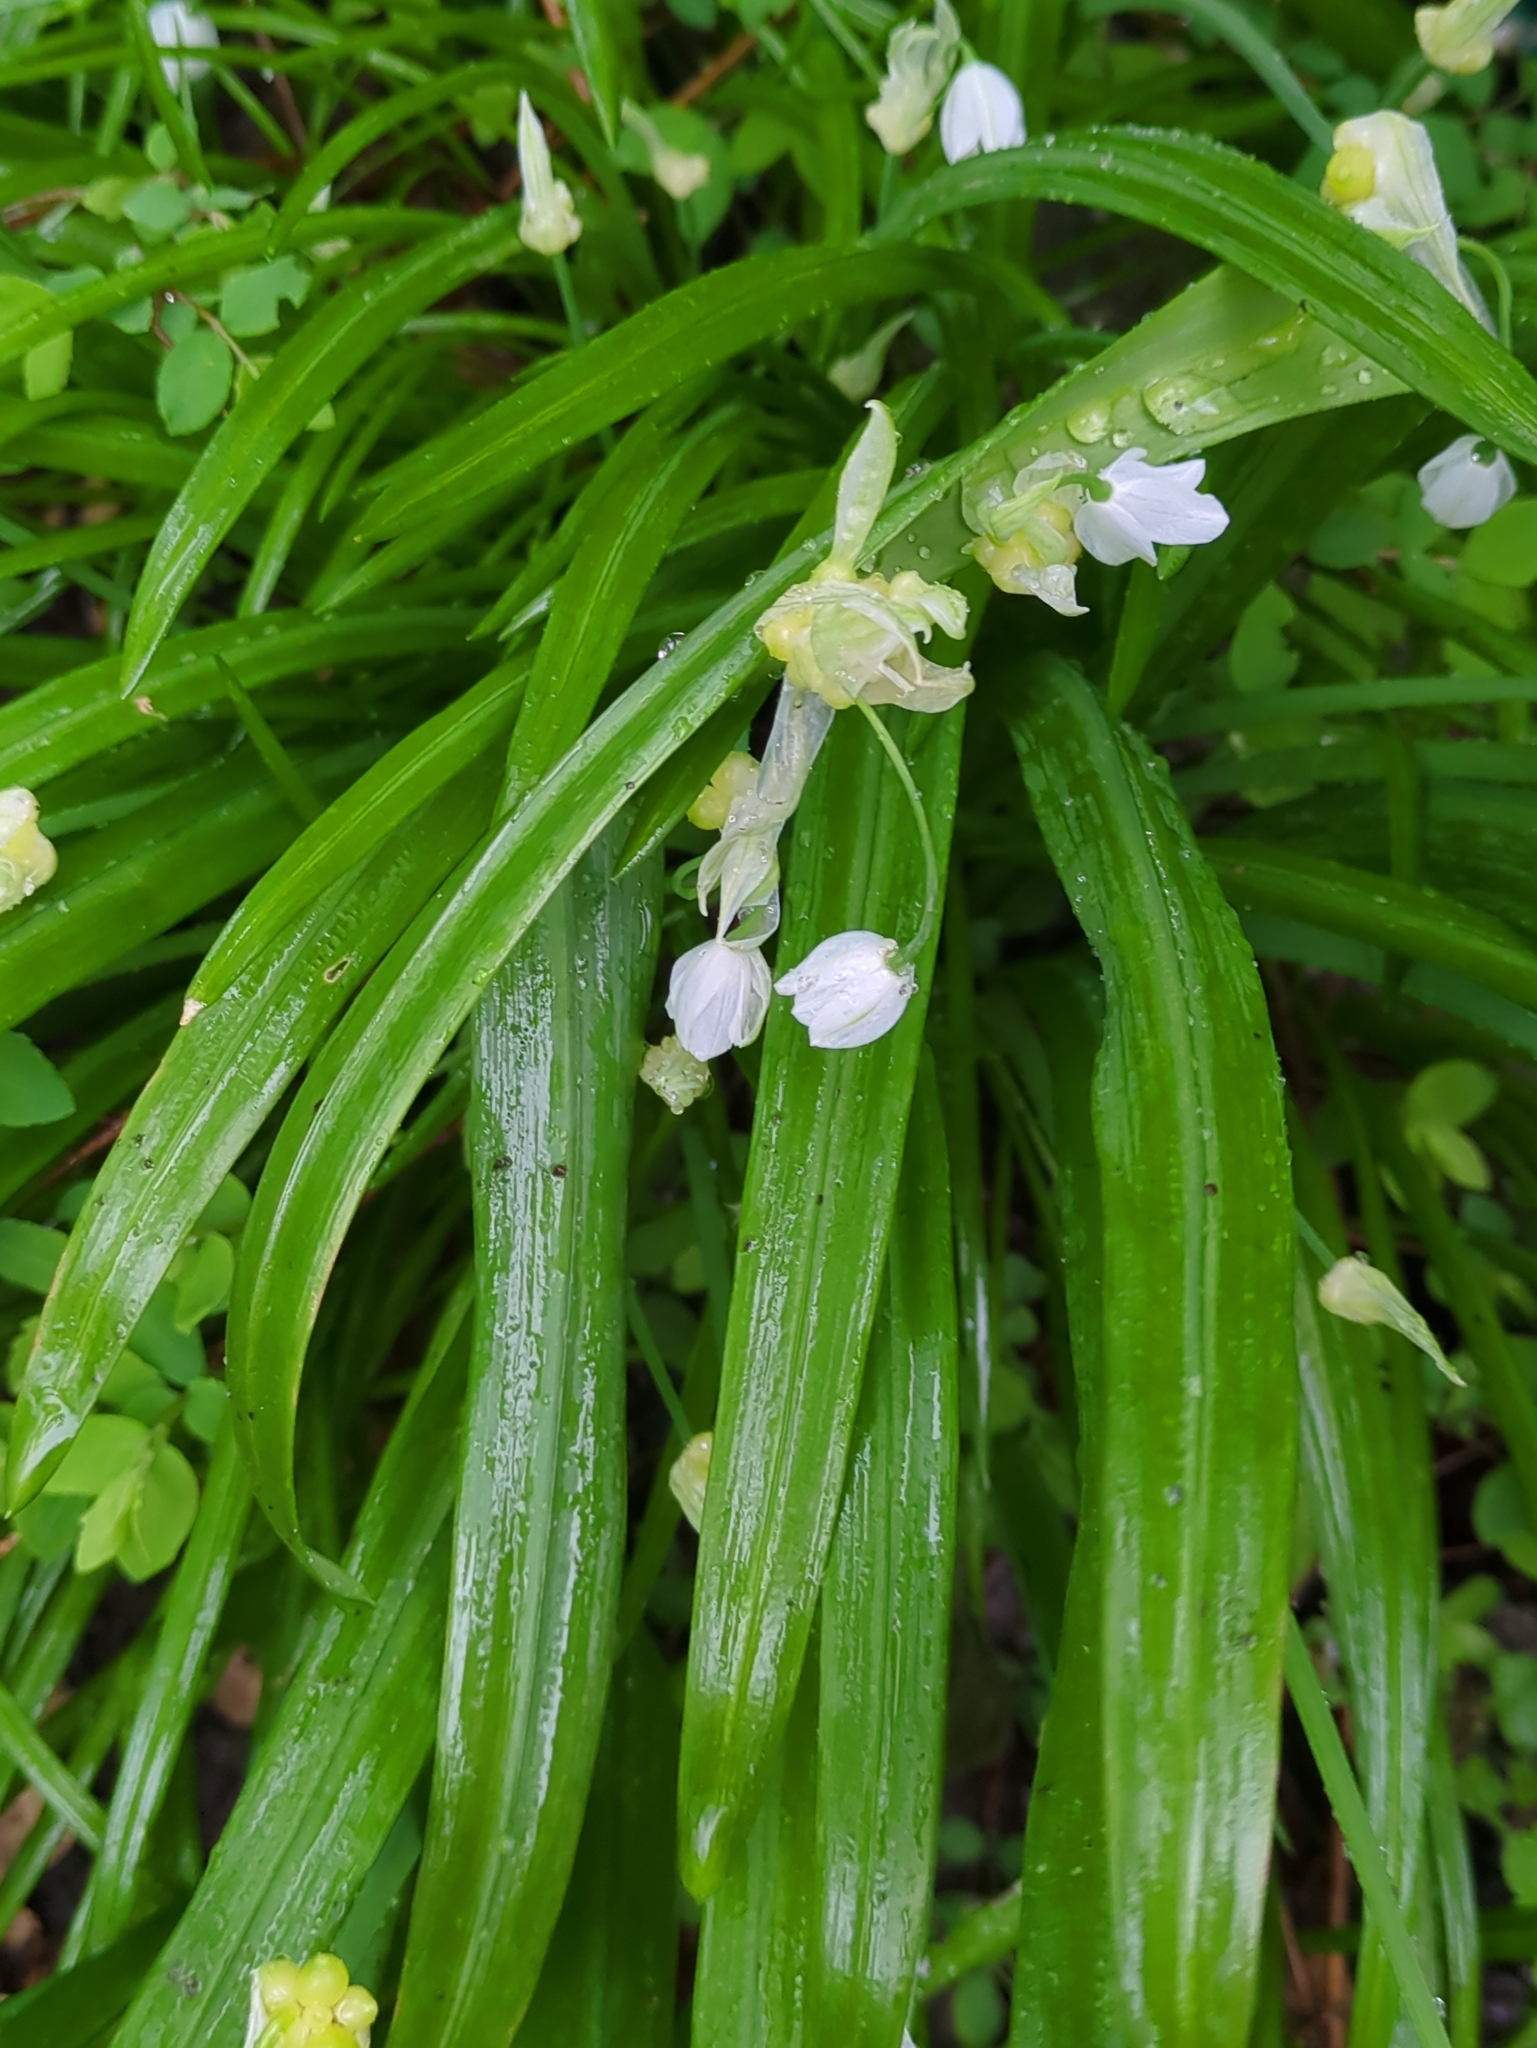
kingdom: Plantae
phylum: Tracheophyta
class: Liliopsida
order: Asparagales
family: Amaryllidaceae
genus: Allium
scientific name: Allium paradoxum
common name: Few-flowered garlic
